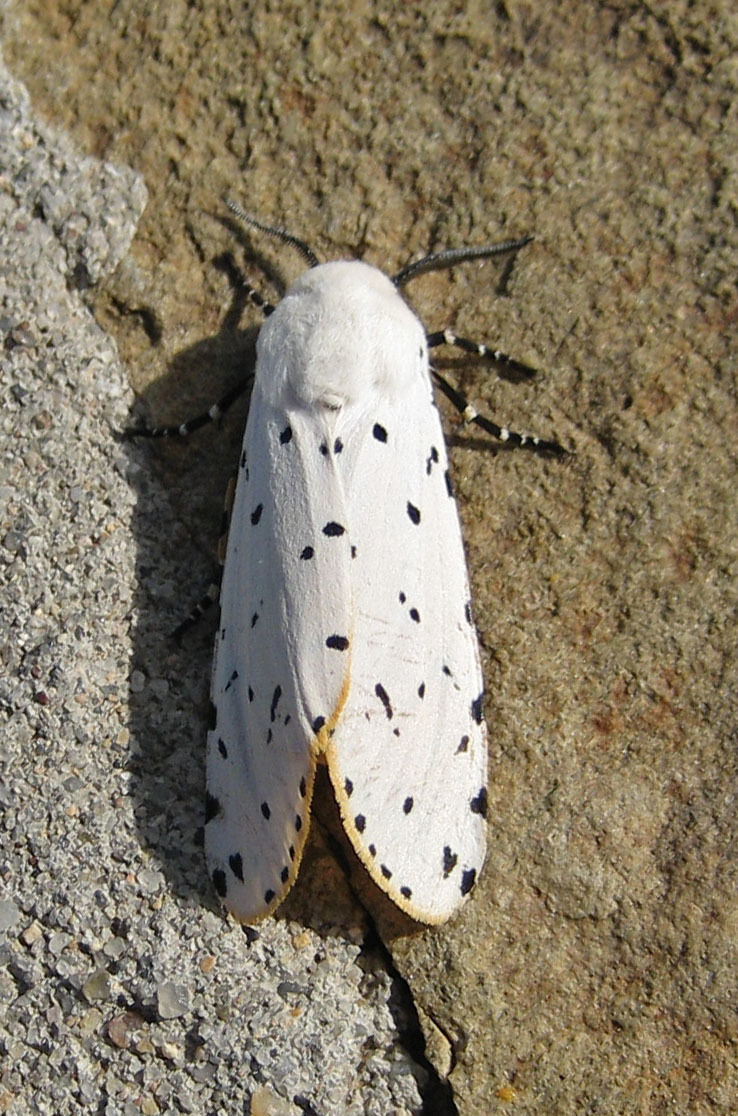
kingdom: Animalia
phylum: Arthropoda
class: Insecta
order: Lepidoptera
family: Erebidae
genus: Estigmene
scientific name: Estigmene acrea
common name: Salt marsh moth
